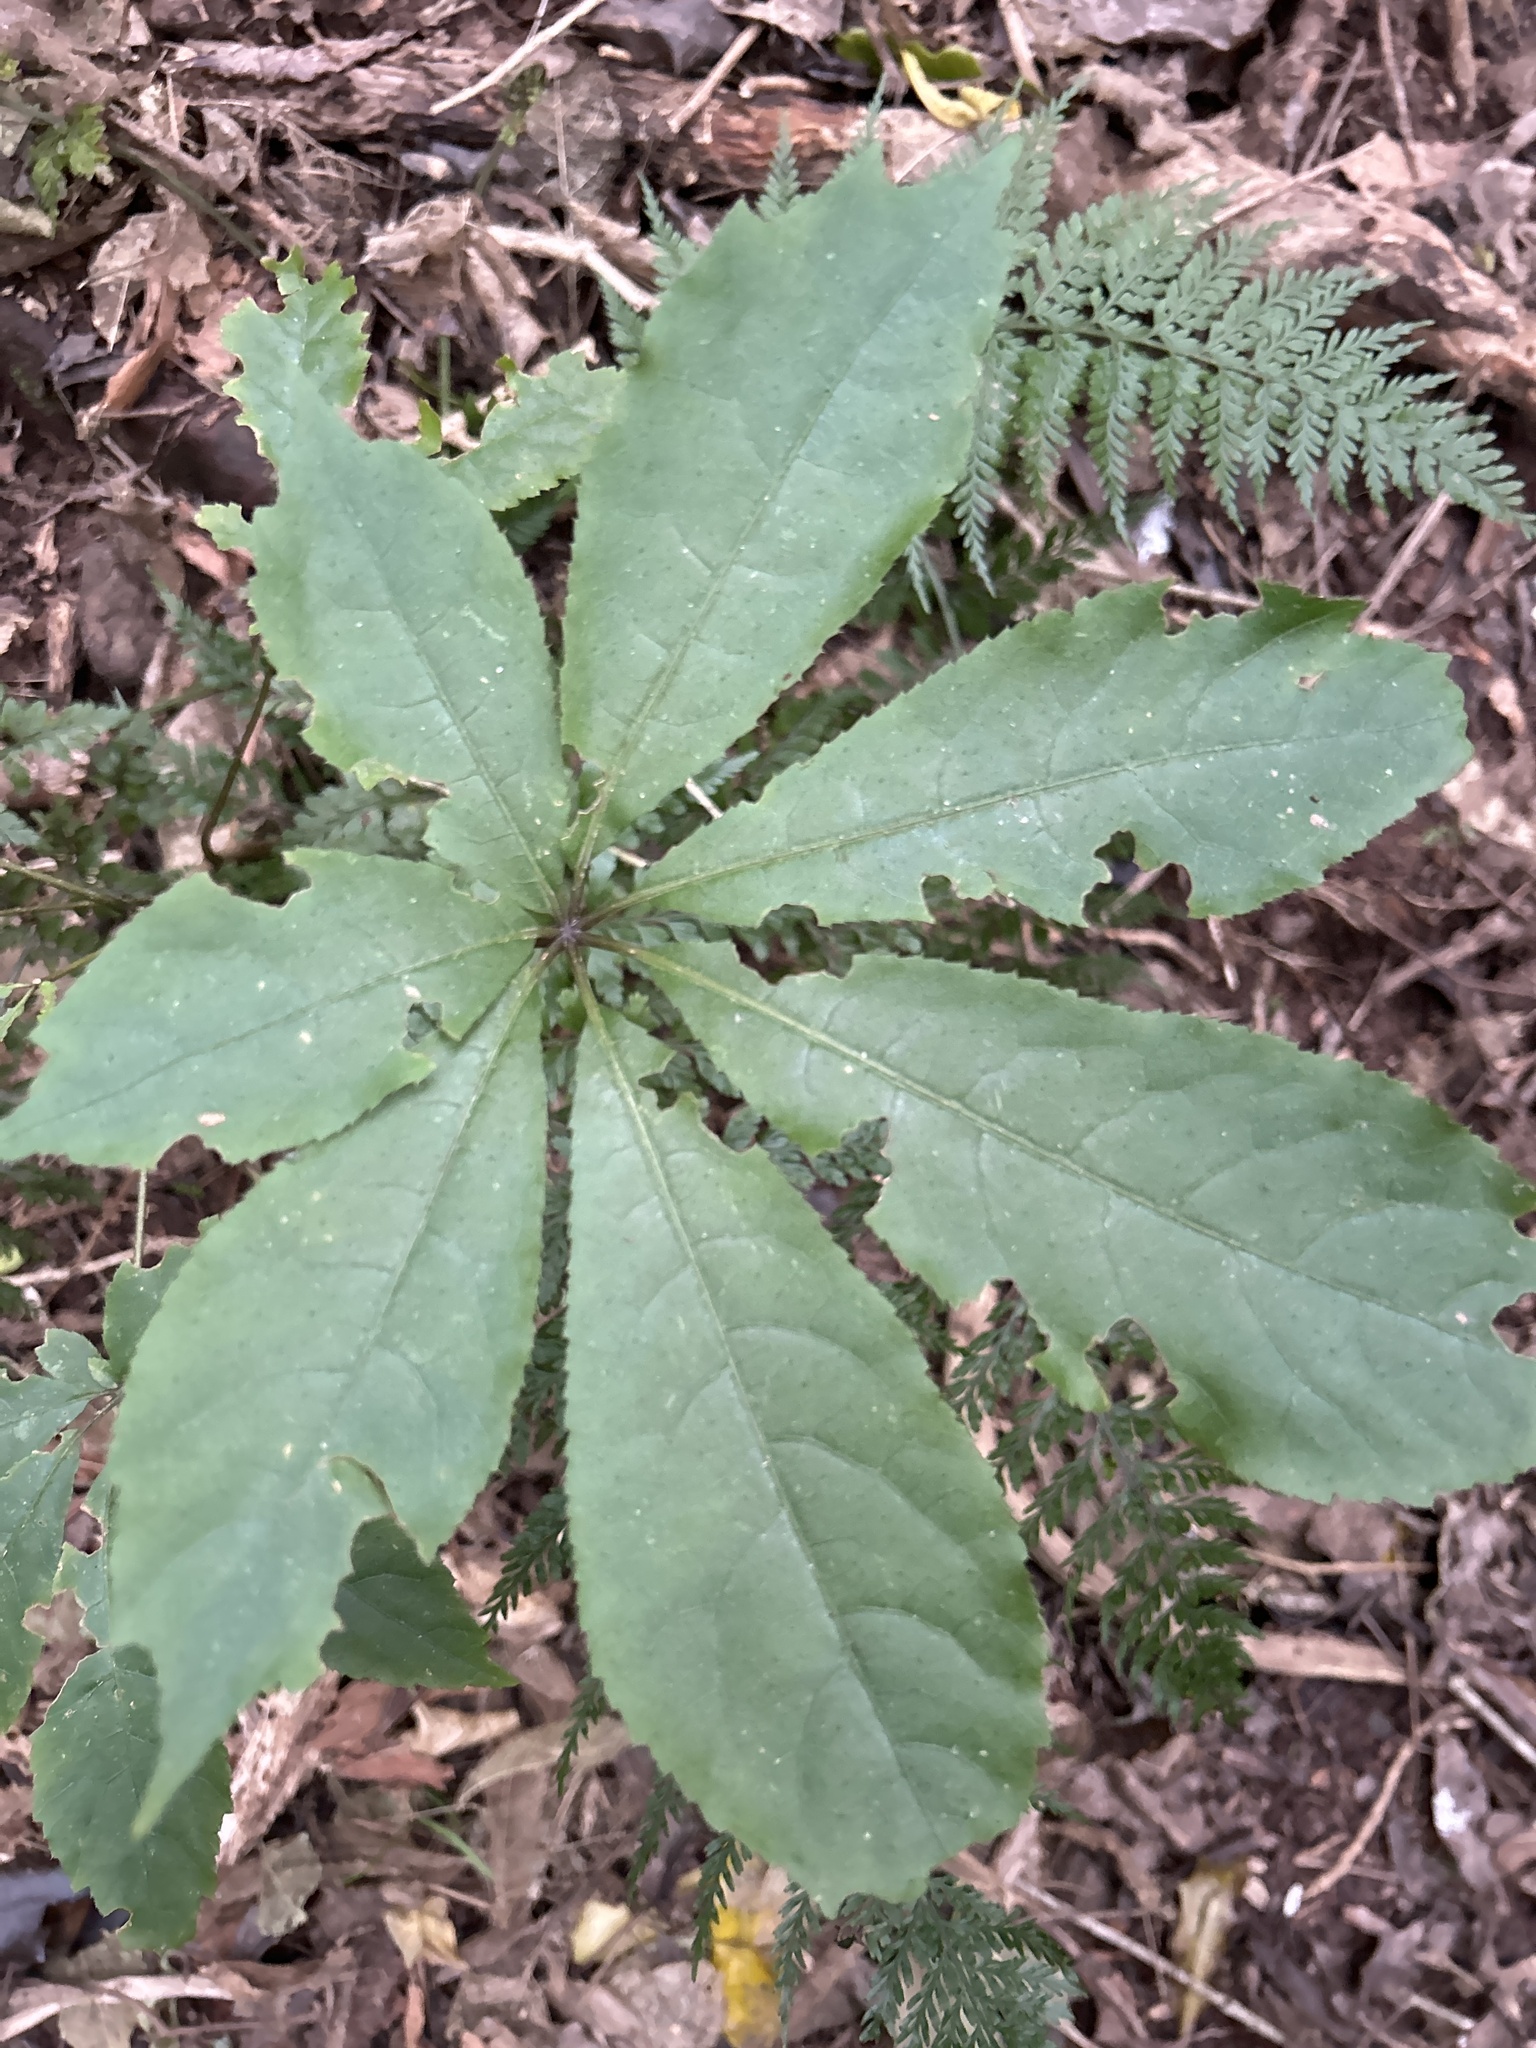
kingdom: Plantae
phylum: Tracheophyta
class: Magnoliopsida
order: Apiales
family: Araliaceae
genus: Schefflera
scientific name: Schefflera digitata
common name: Pate
